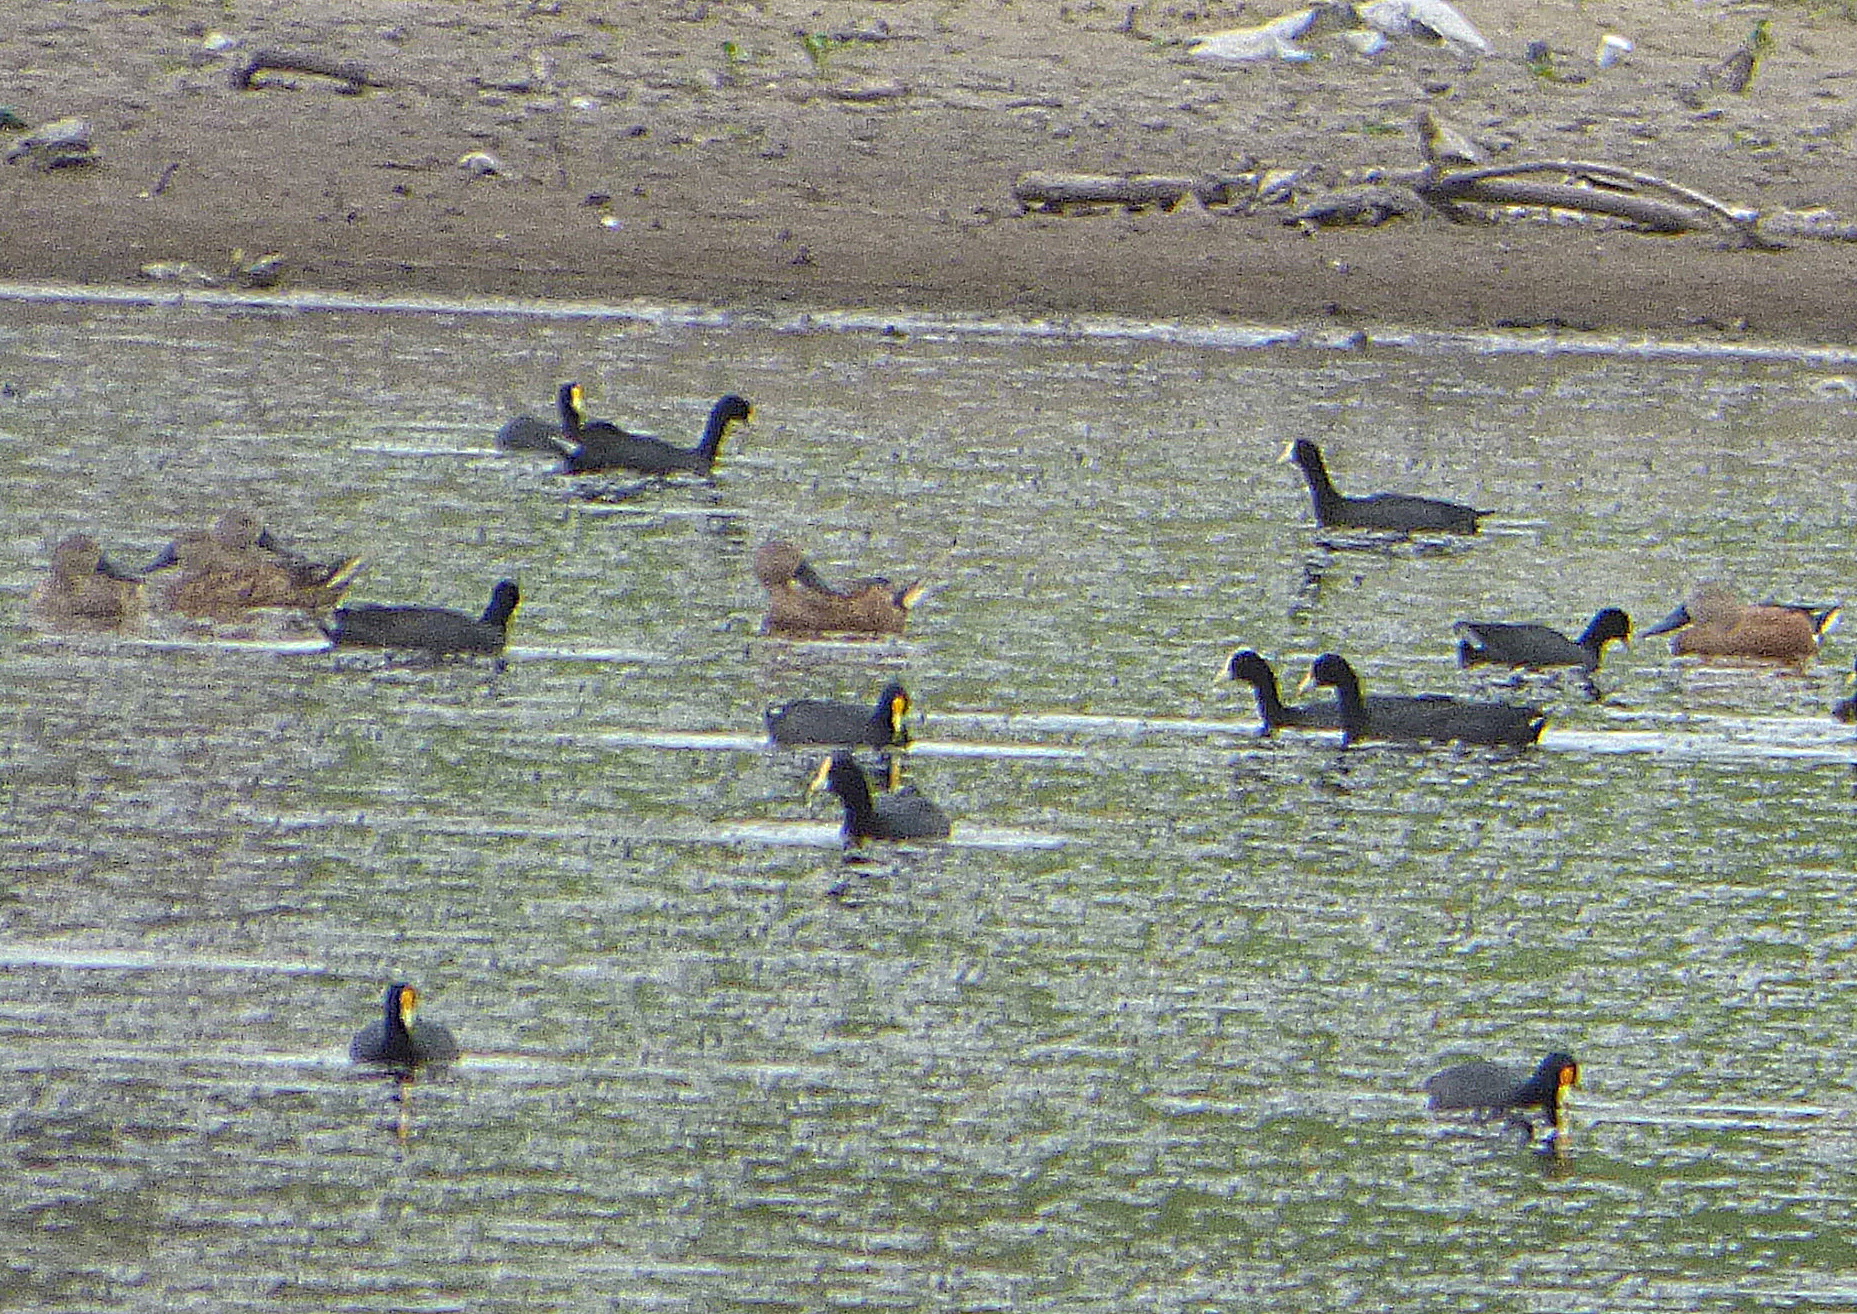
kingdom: Animalia
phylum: Chordata
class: Aves
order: Anseriformes
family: Anatidae
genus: Spatula
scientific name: Spatula platalea
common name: Red shoveler
